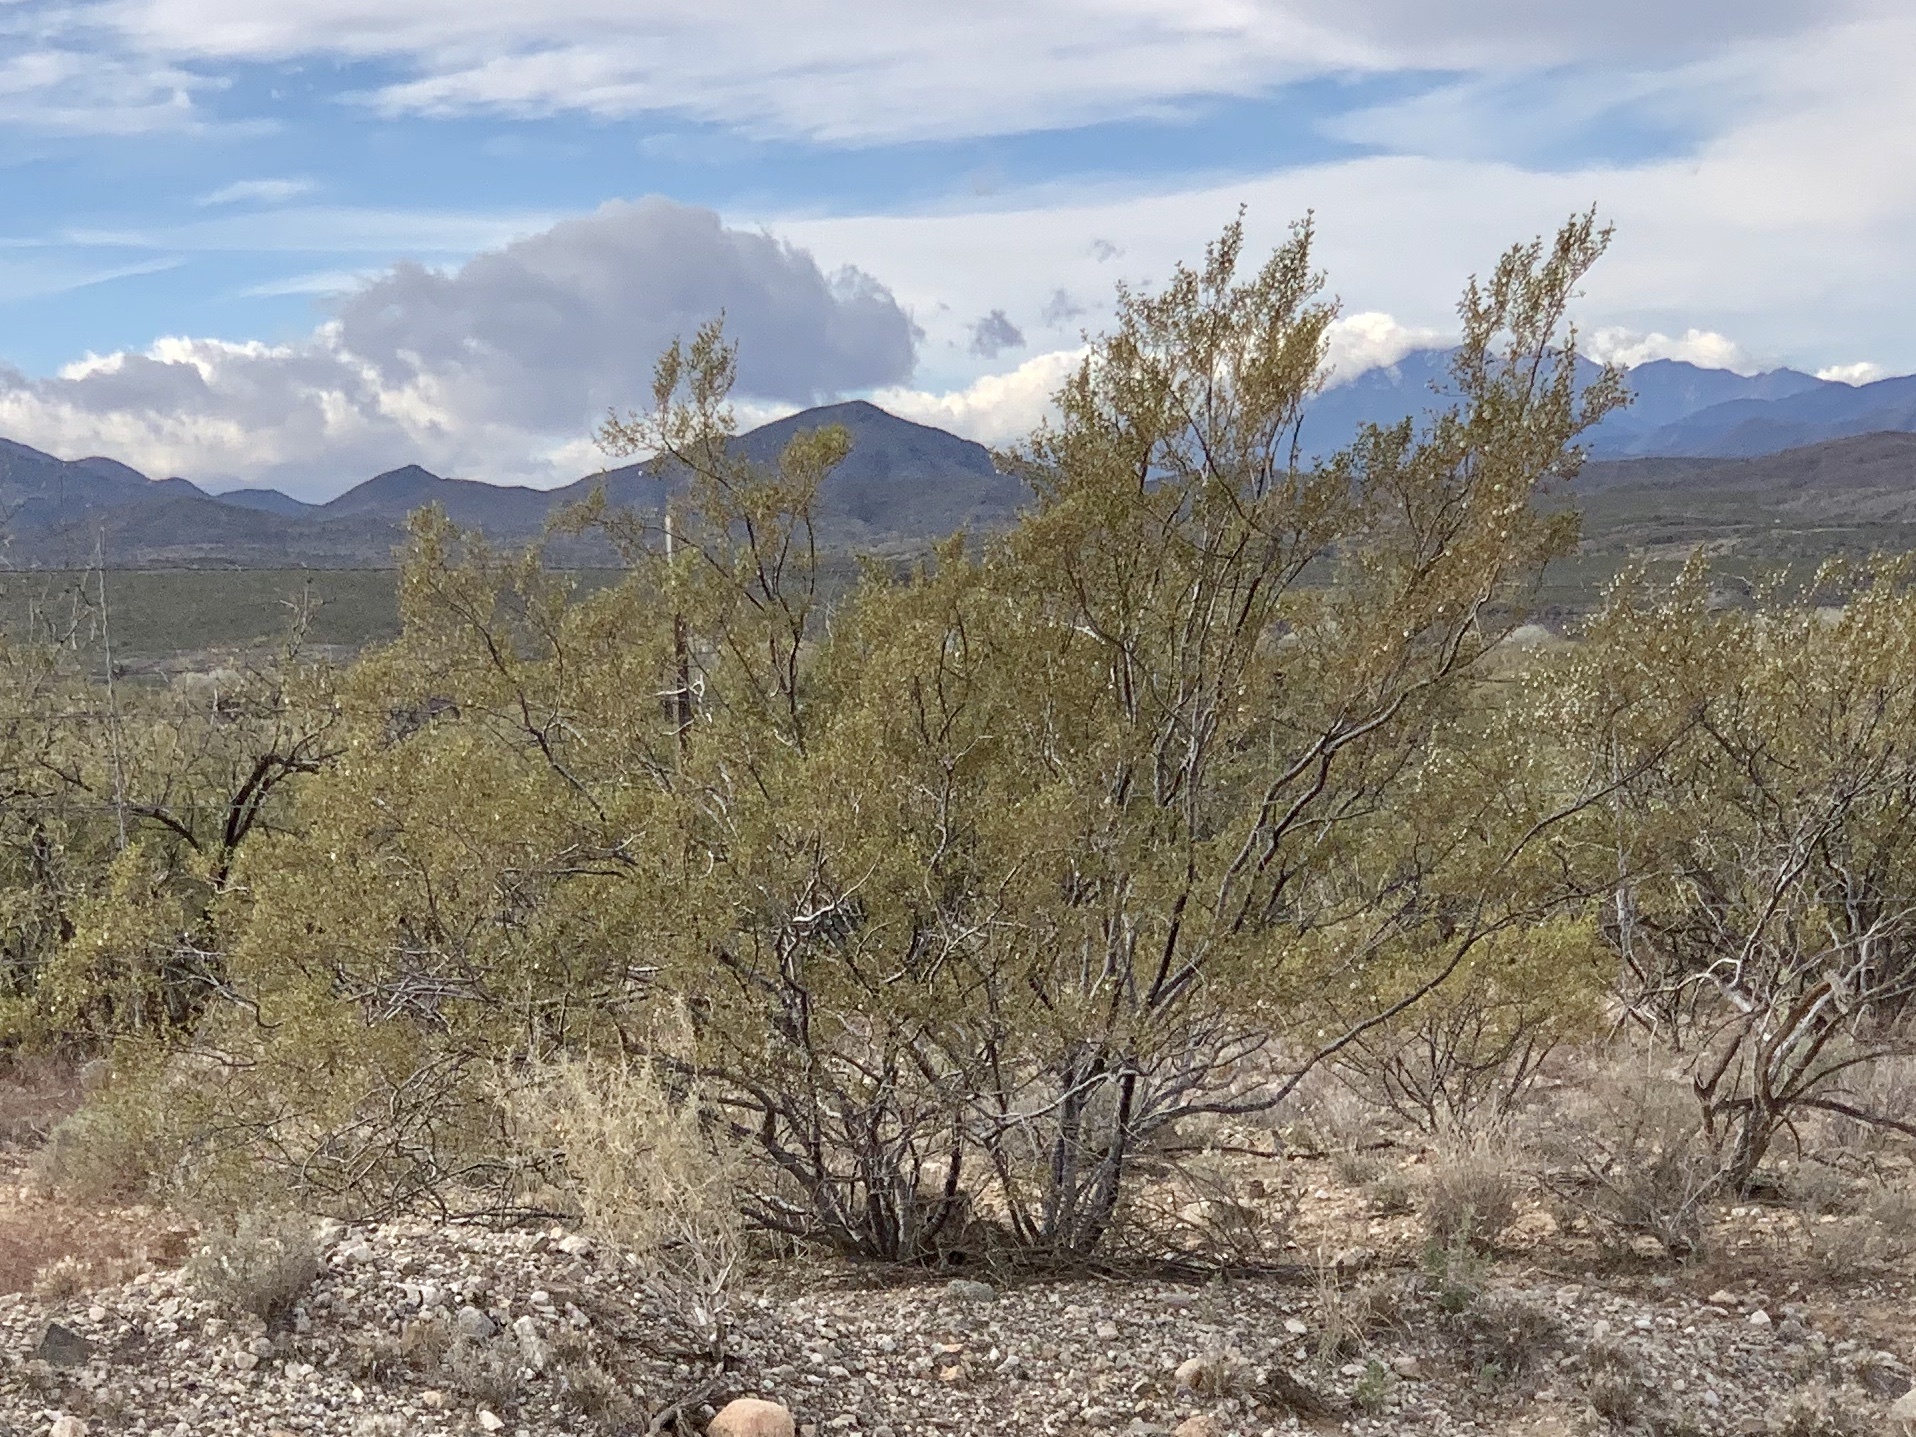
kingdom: Plantae
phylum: Tracheophyta
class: Magnoliopsida
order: Zygophyllales
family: Zygophyllaceae
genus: Larrea
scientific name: Larrea tridentata
